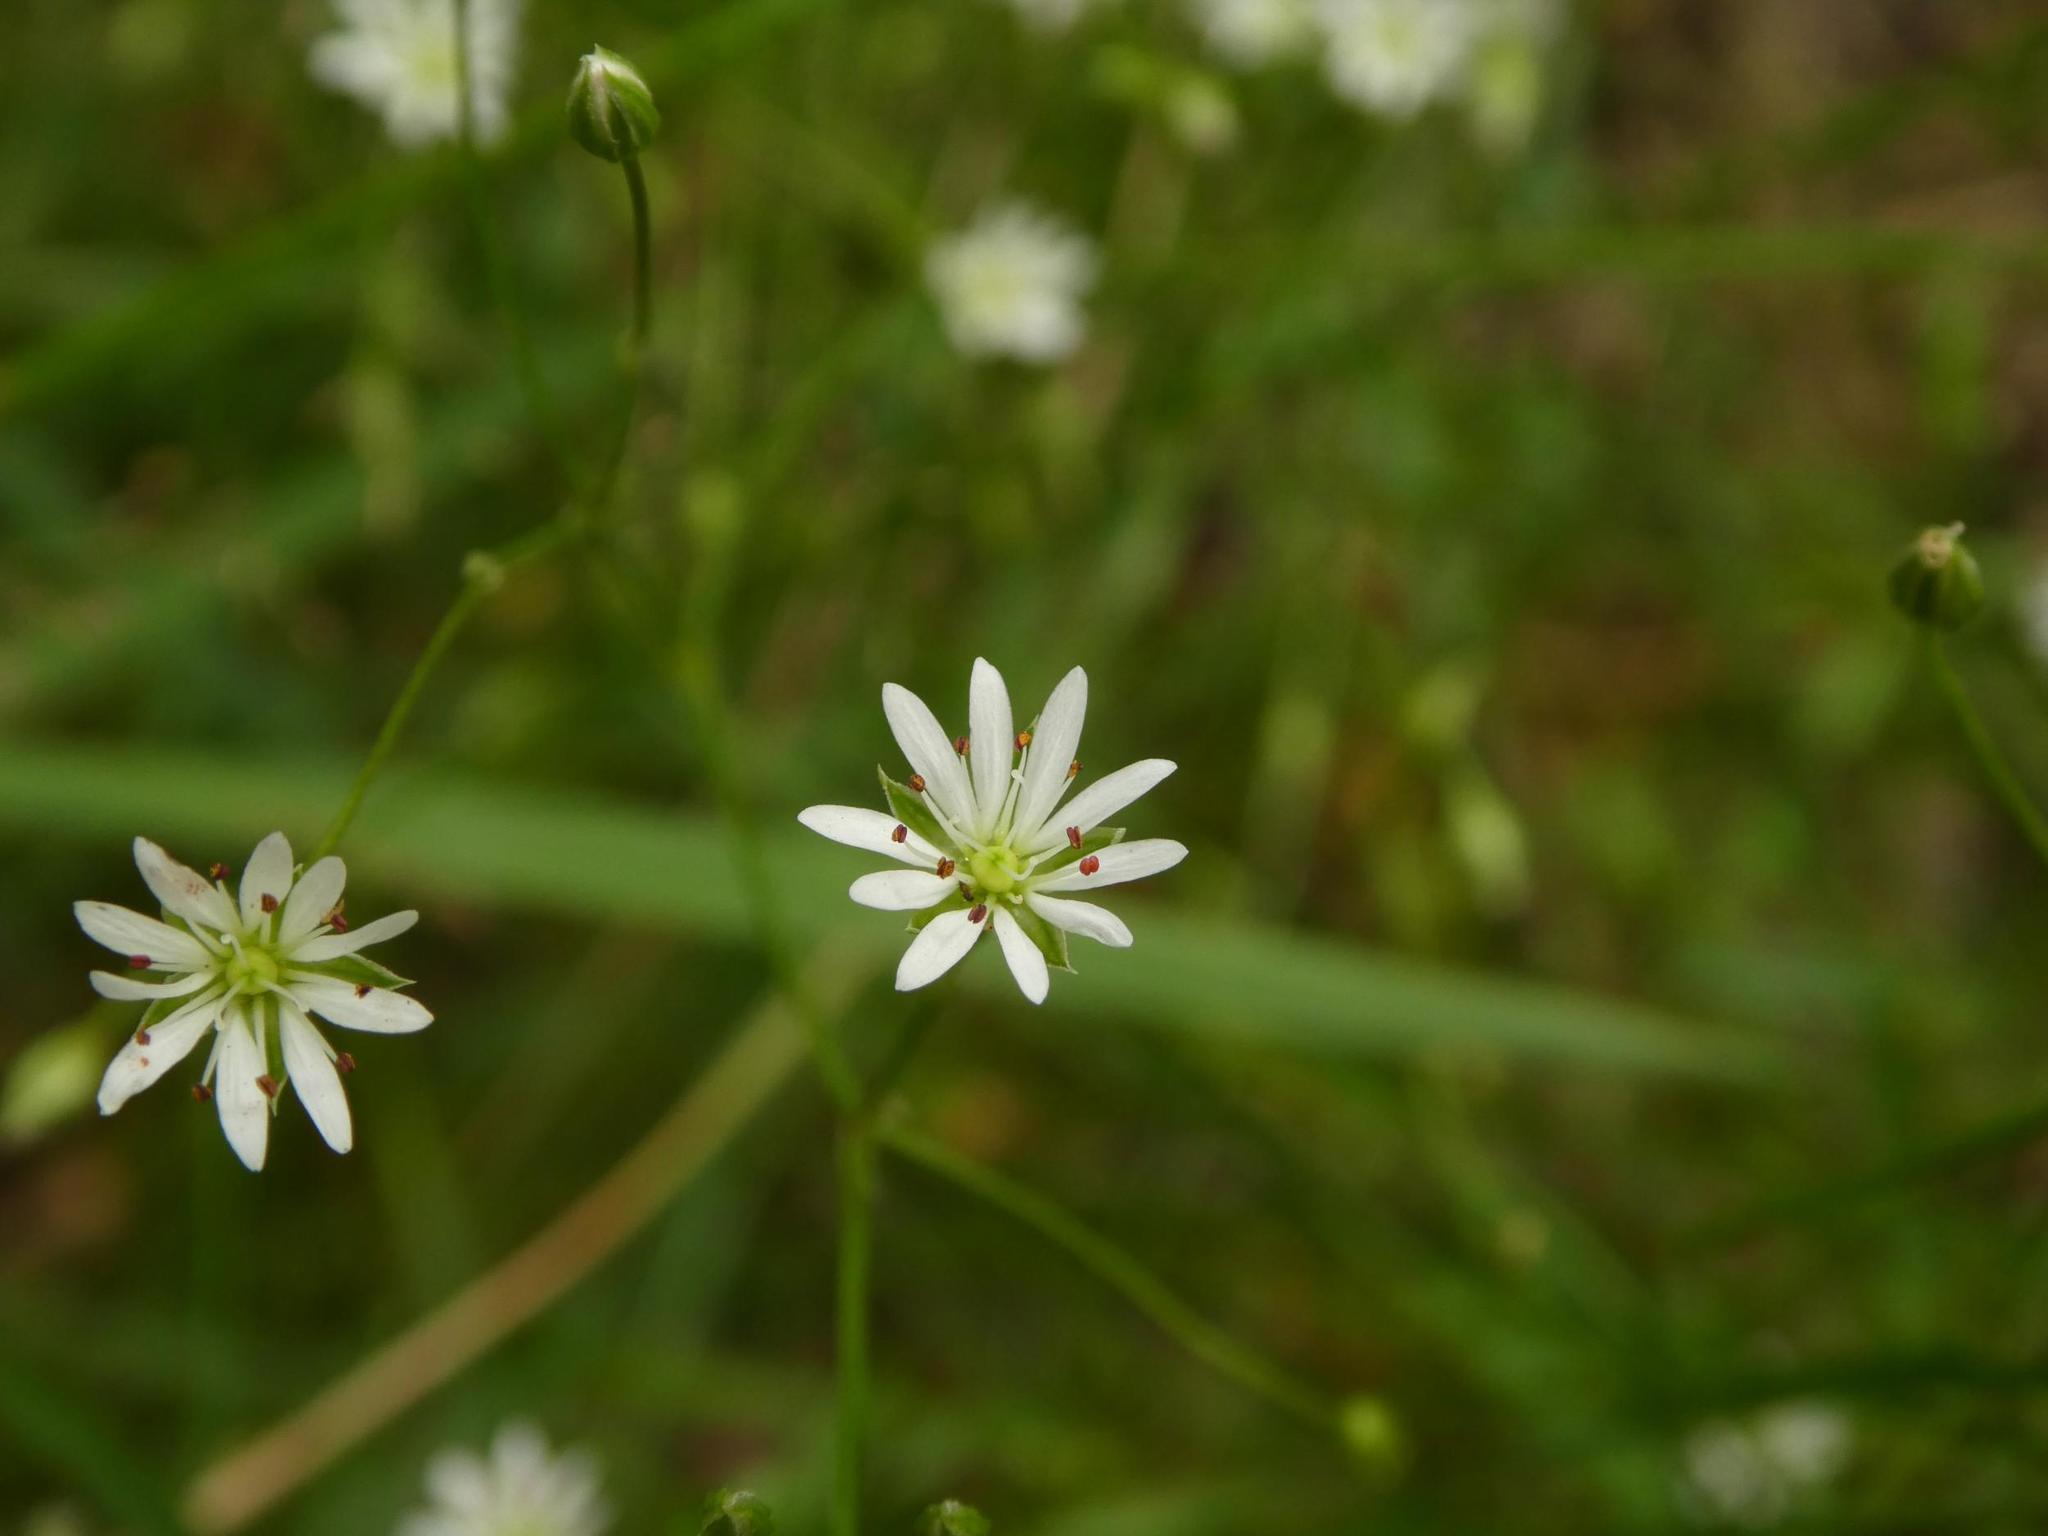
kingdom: Plantae
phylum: Tracheophyta
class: Magnoliopsida
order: Caryophyllales
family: Caryophyllaceae
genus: Stellaria
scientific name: Stellaria graminea
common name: Grass-like starwort
